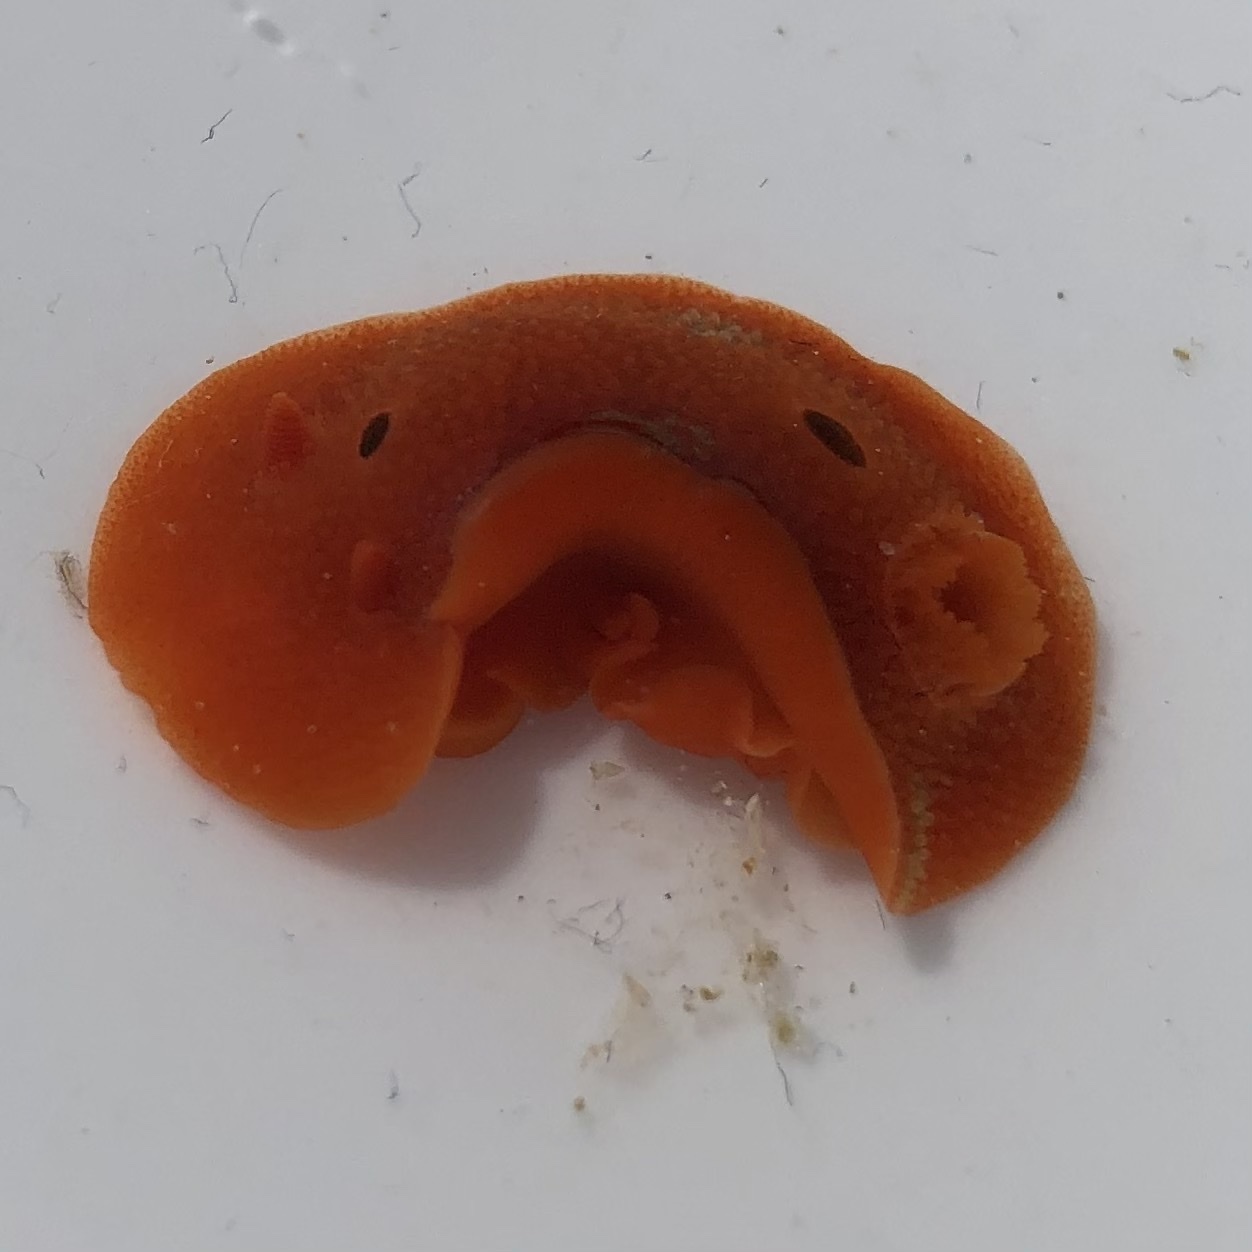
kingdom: Animalia
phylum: Mollusca
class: Gastropoda
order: Nudibranchia
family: Cadlinidae
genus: Aldisa
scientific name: Aldisa sanguinea
